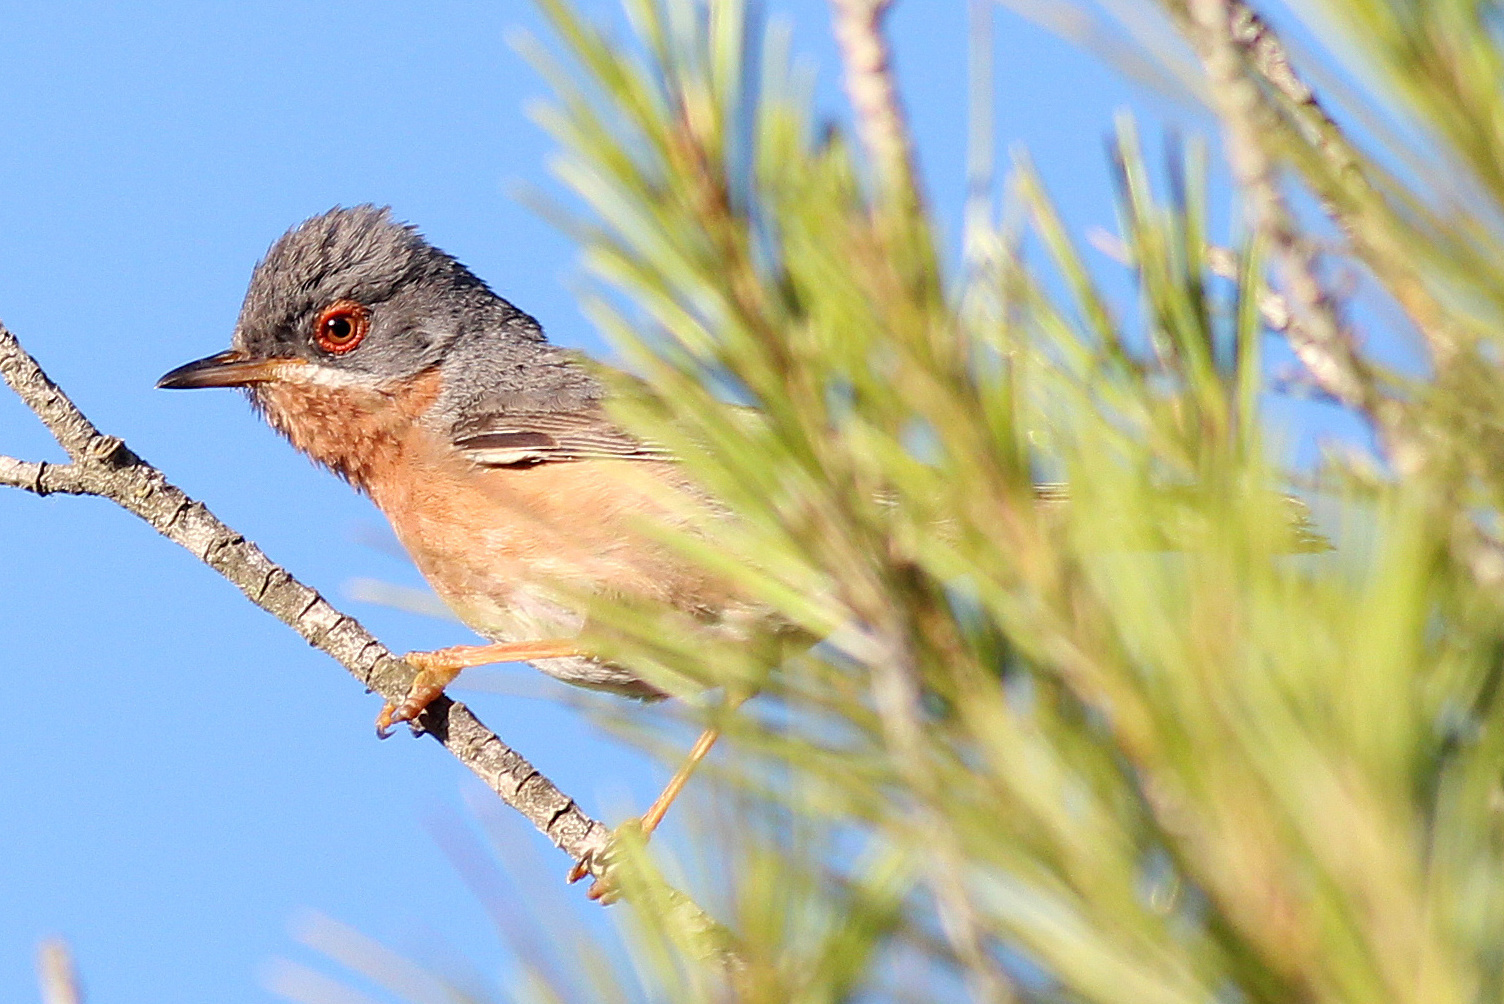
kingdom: Animalia
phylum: Chordata
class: Aves
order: Passeriformes
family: Sylviidae
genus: Curruca
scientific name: Curruca iberiae
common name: Western subalpine warbler
